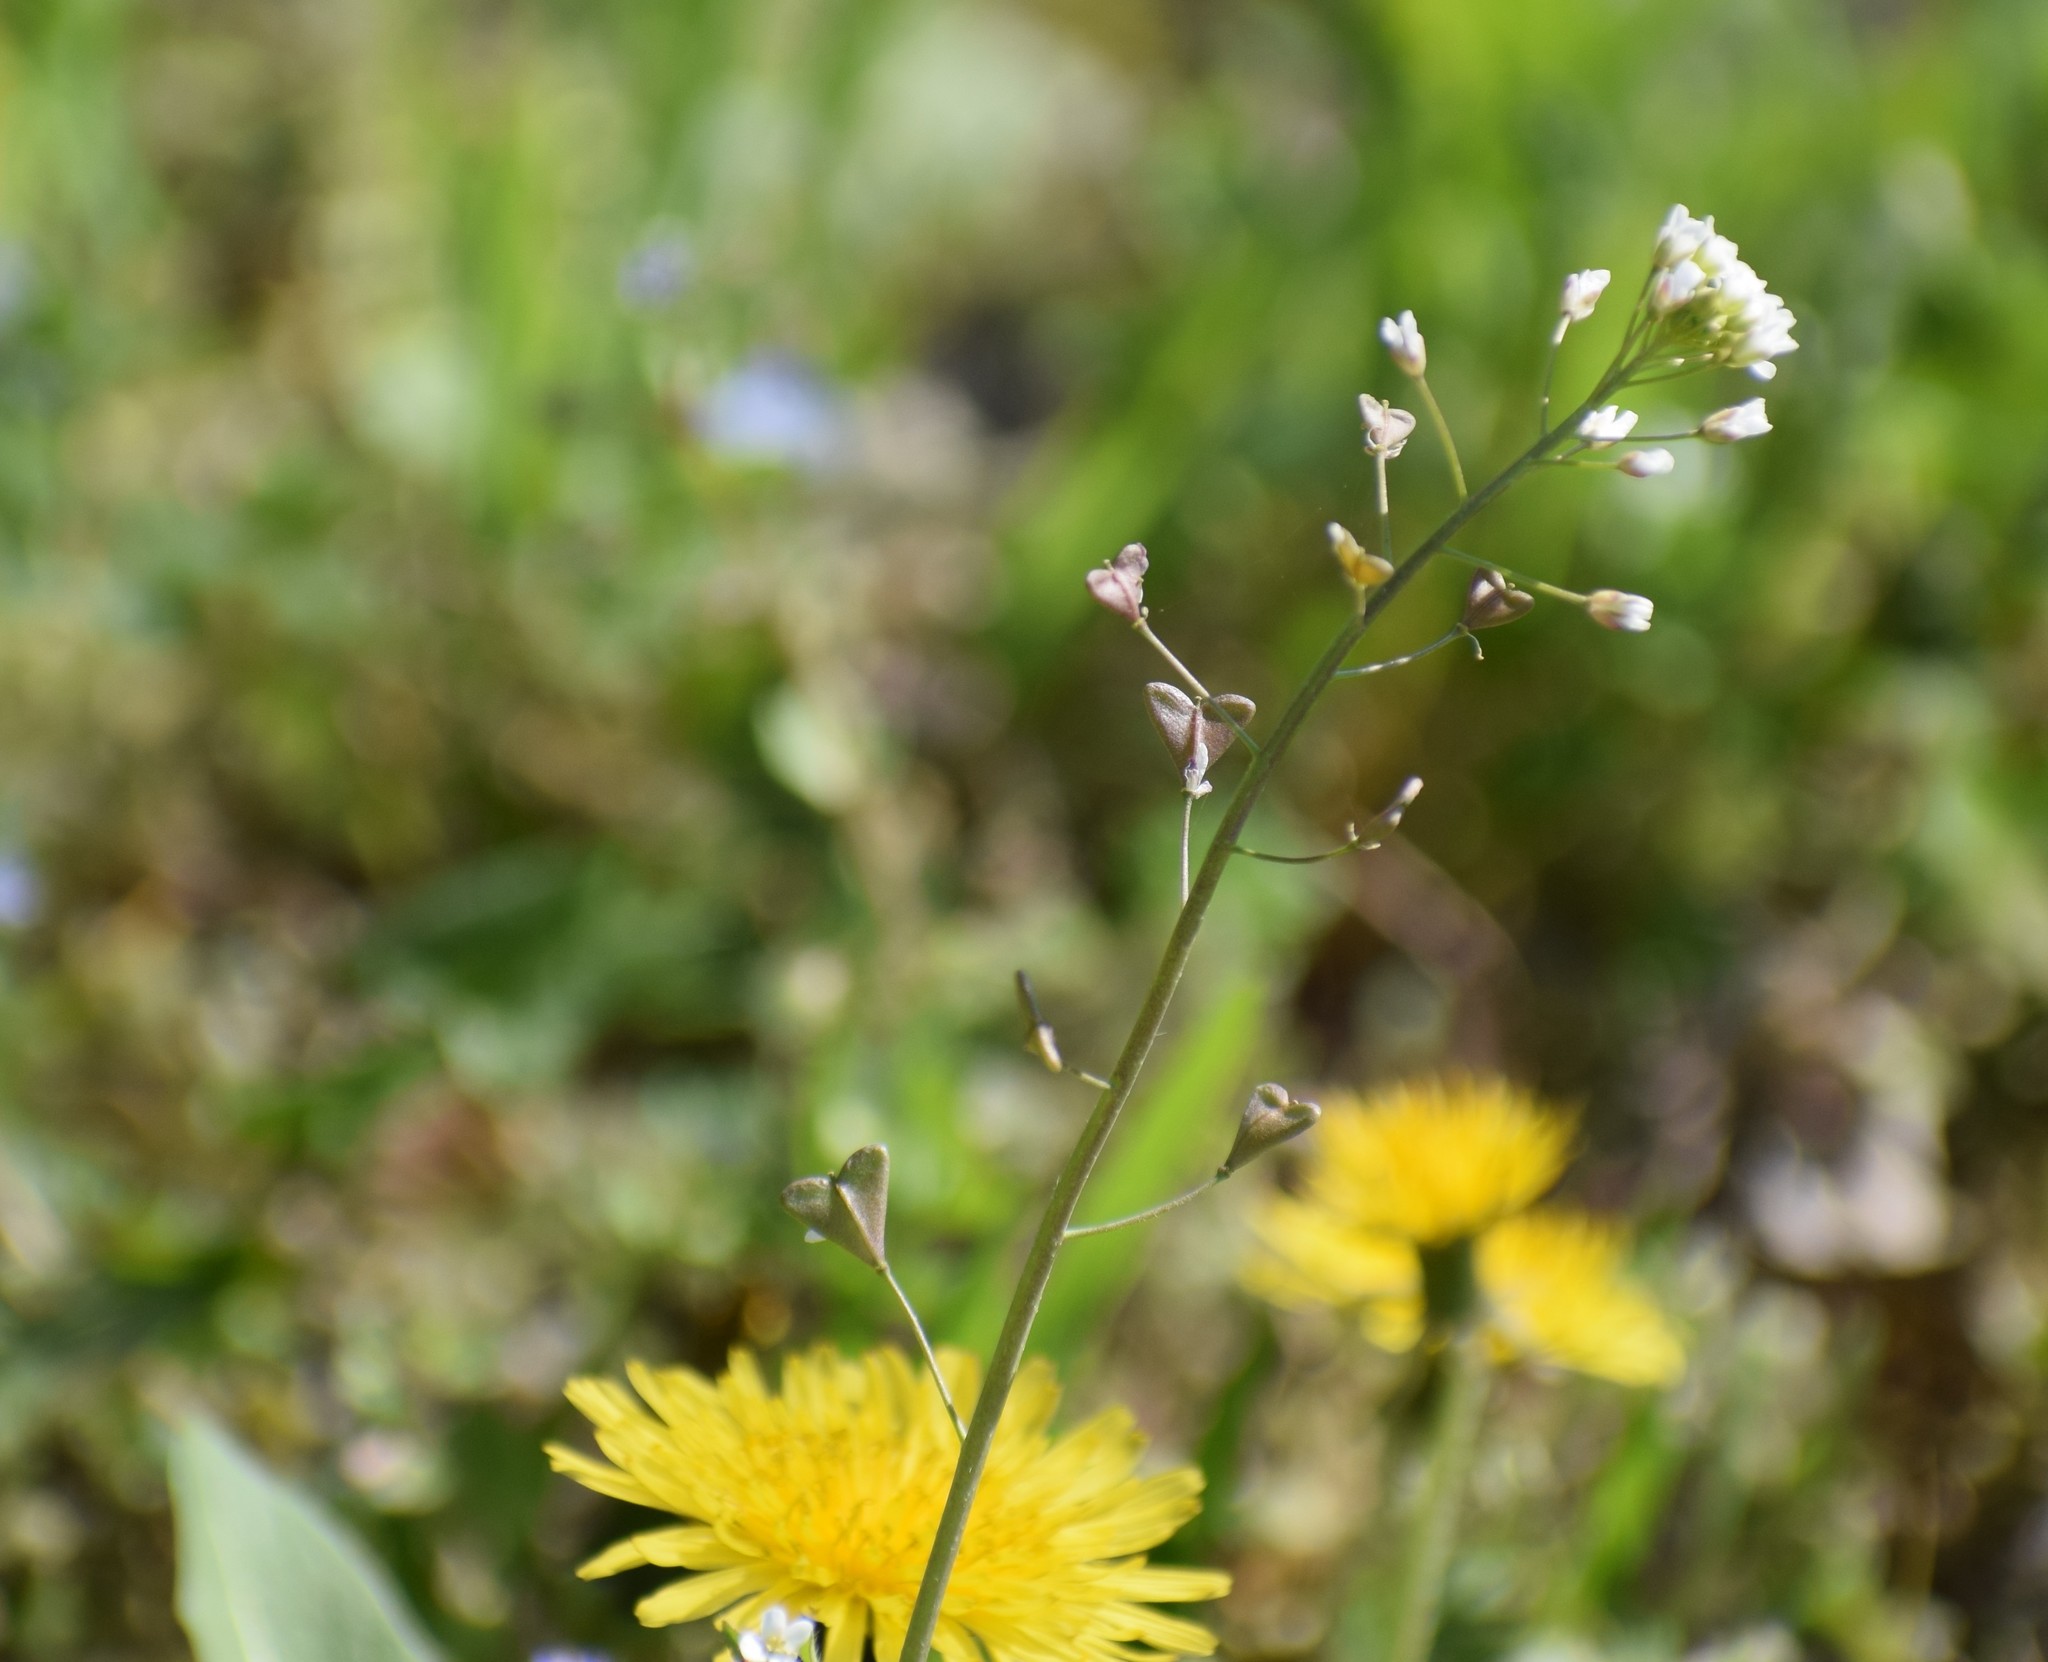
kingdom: Plantae
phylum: Tracheophyta
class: Magnoliopsida
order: Brassicales
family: Brassicaceae
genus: Capsella
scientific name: Capsella bursa-pastoris
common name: Shepherd's purse
